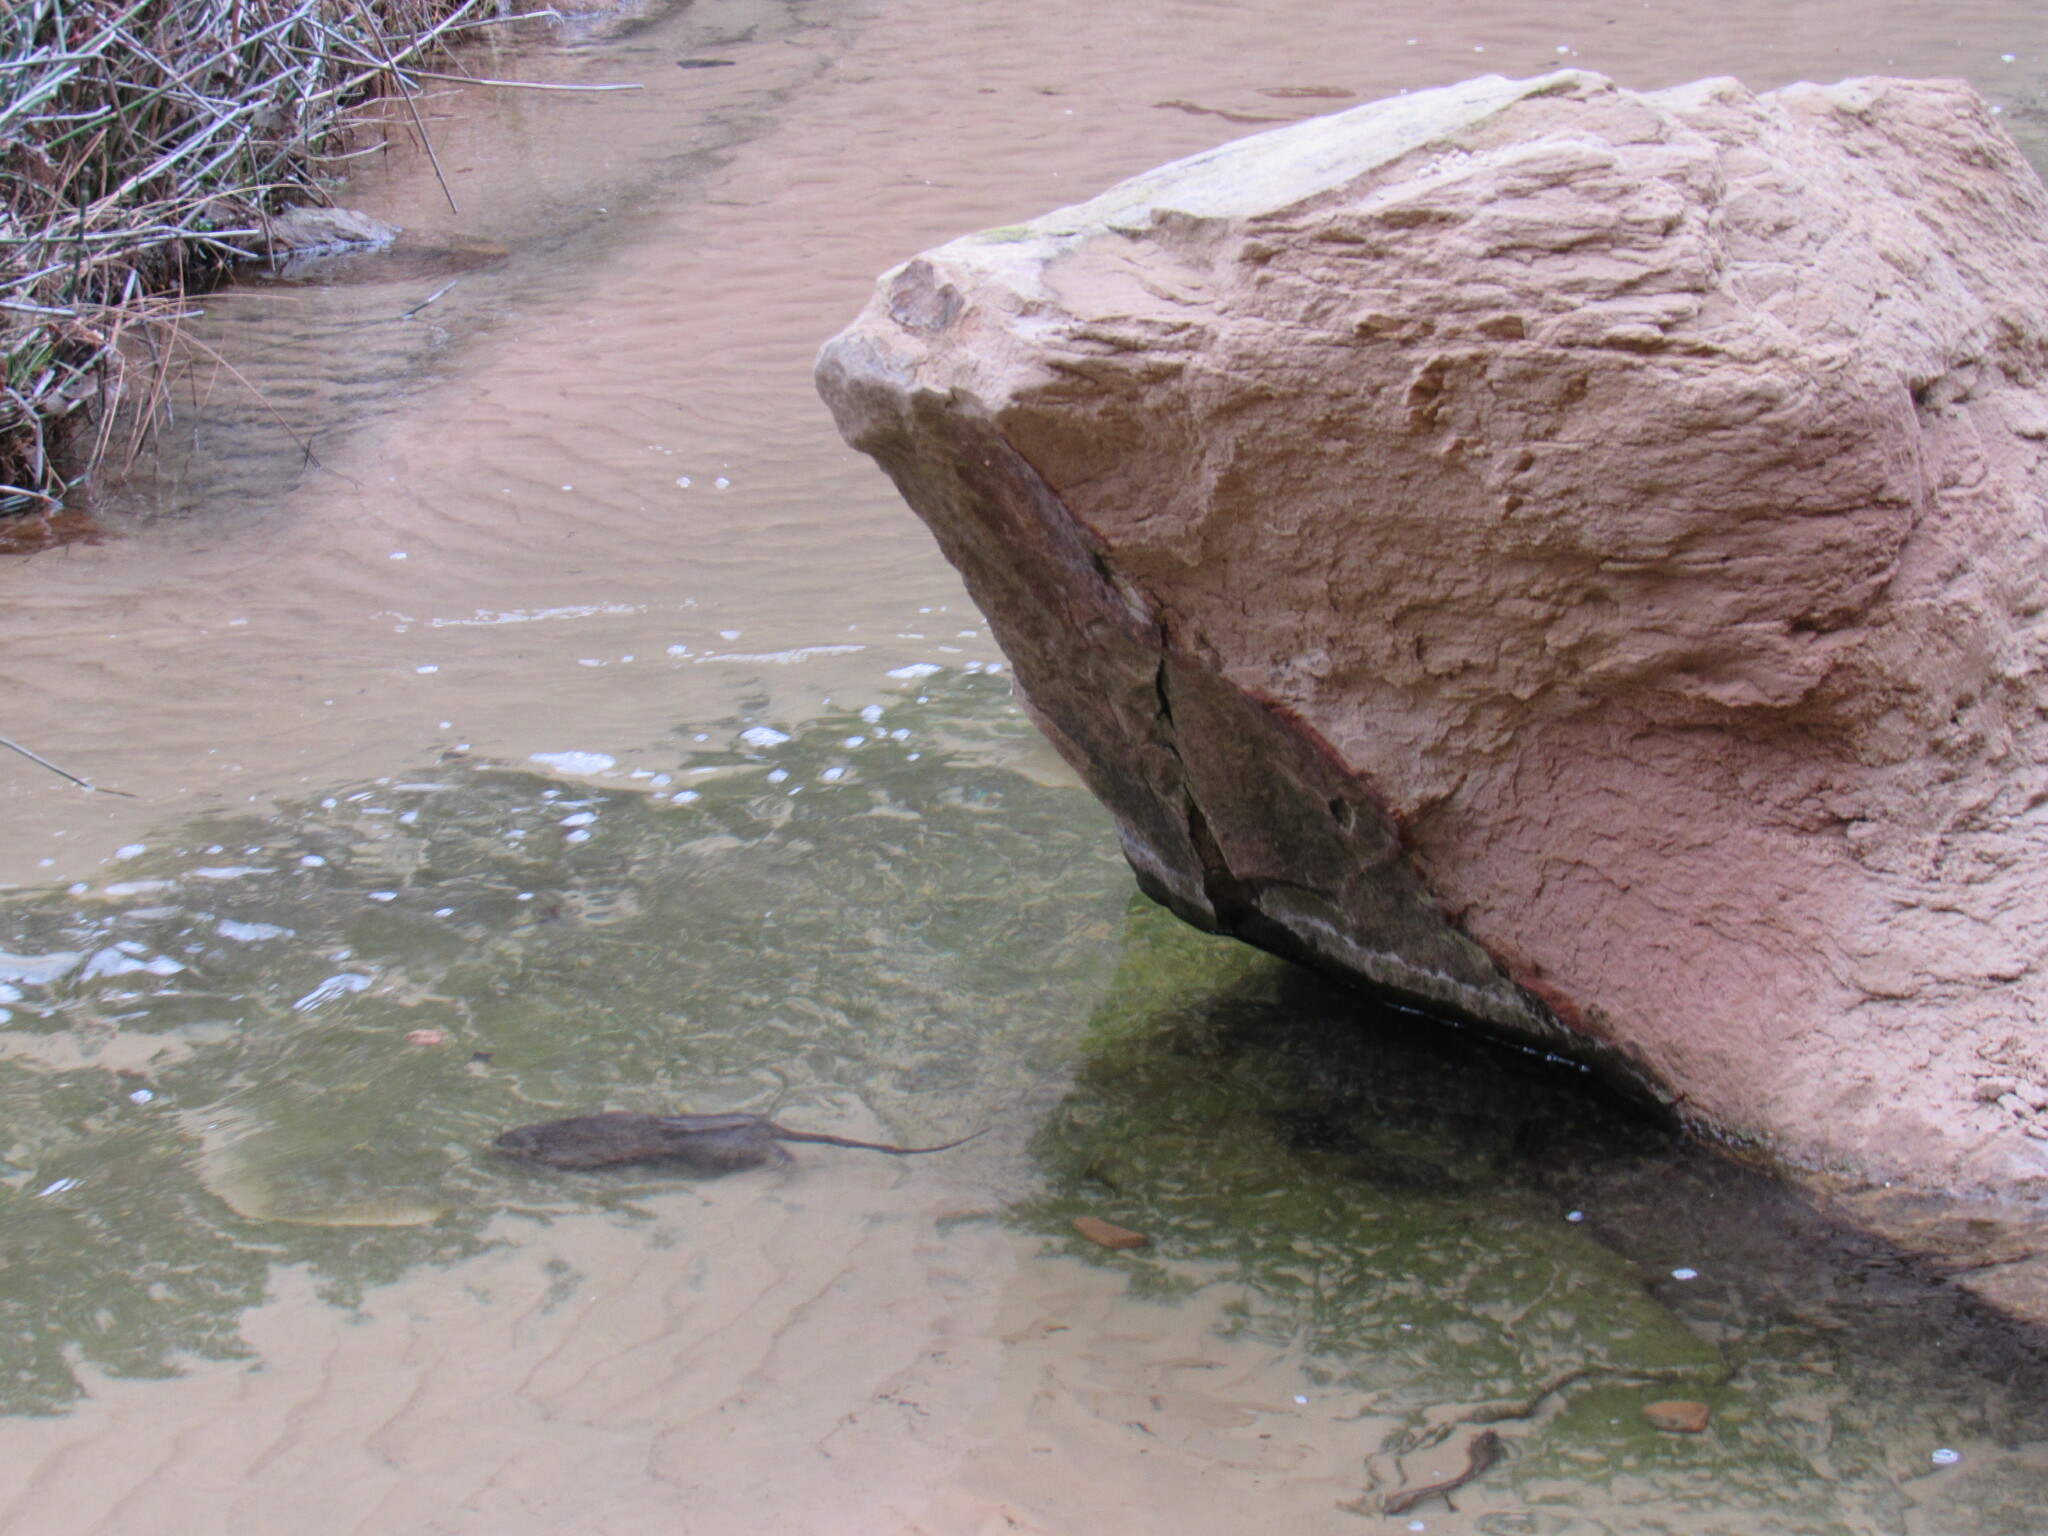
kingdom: Animalia
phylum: Chordata
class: Mammalia
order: Rodentia
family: Cricetidae
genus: Ondatra
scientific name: Ondatra zibethicus
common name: Muskrat
